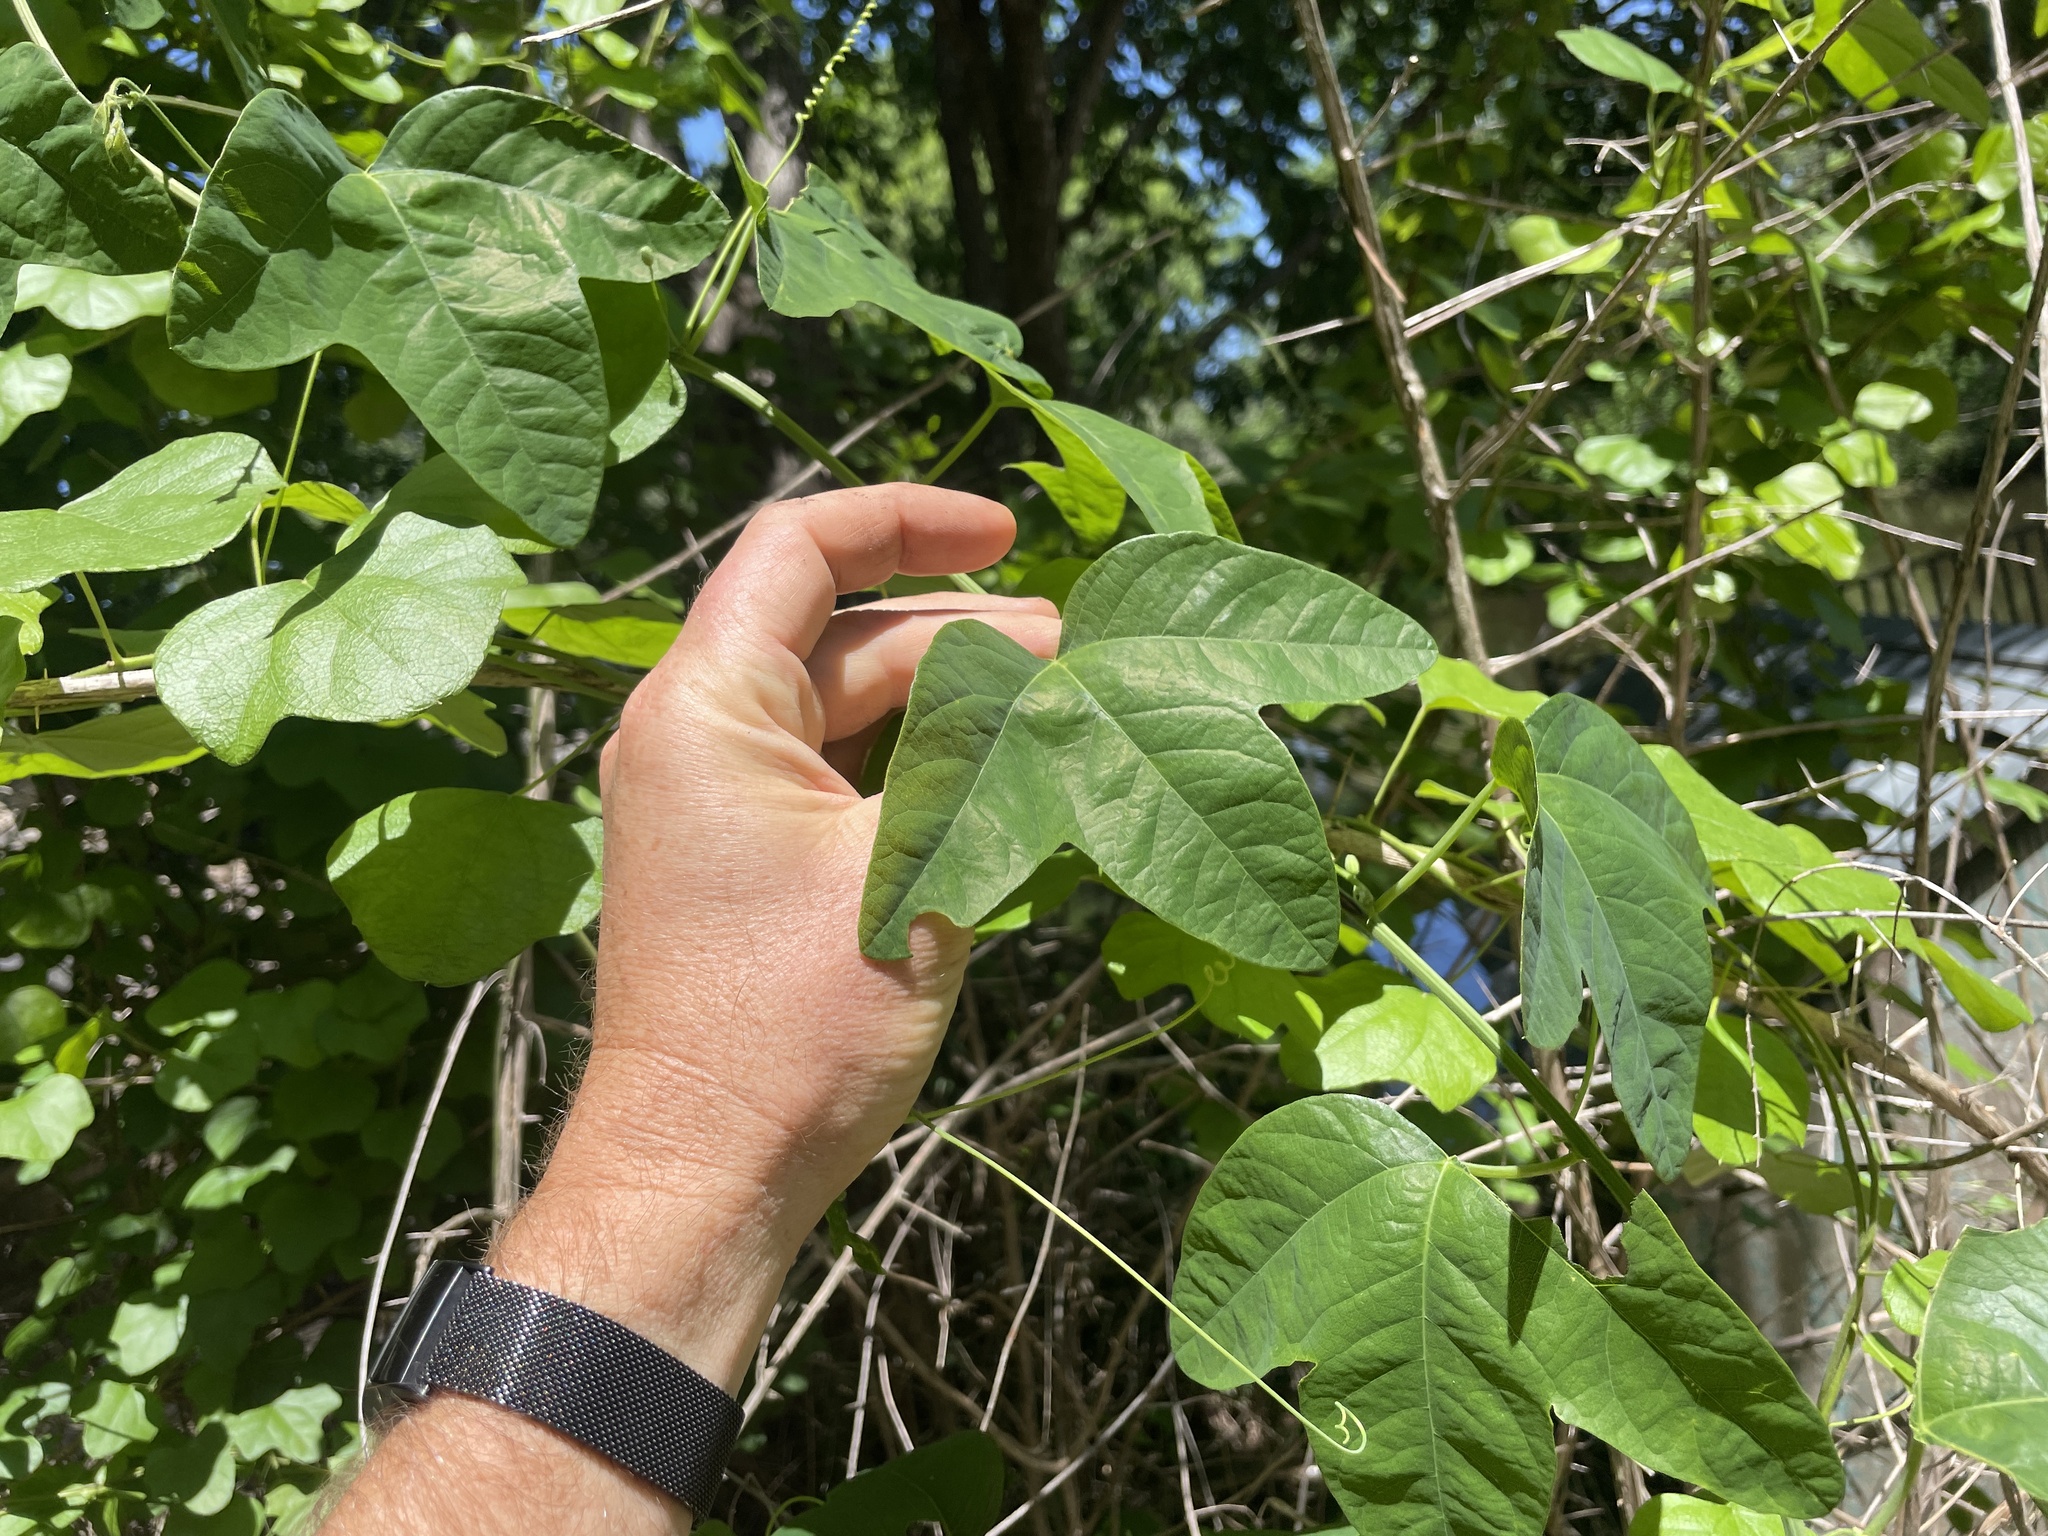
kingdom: Plantae
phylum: Tracheophyta
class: Magnoliopsida
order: Malpighiales
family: Passifloraceae
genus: Passiflora
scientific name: Passiflora lutea
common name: Yellow passionflower
